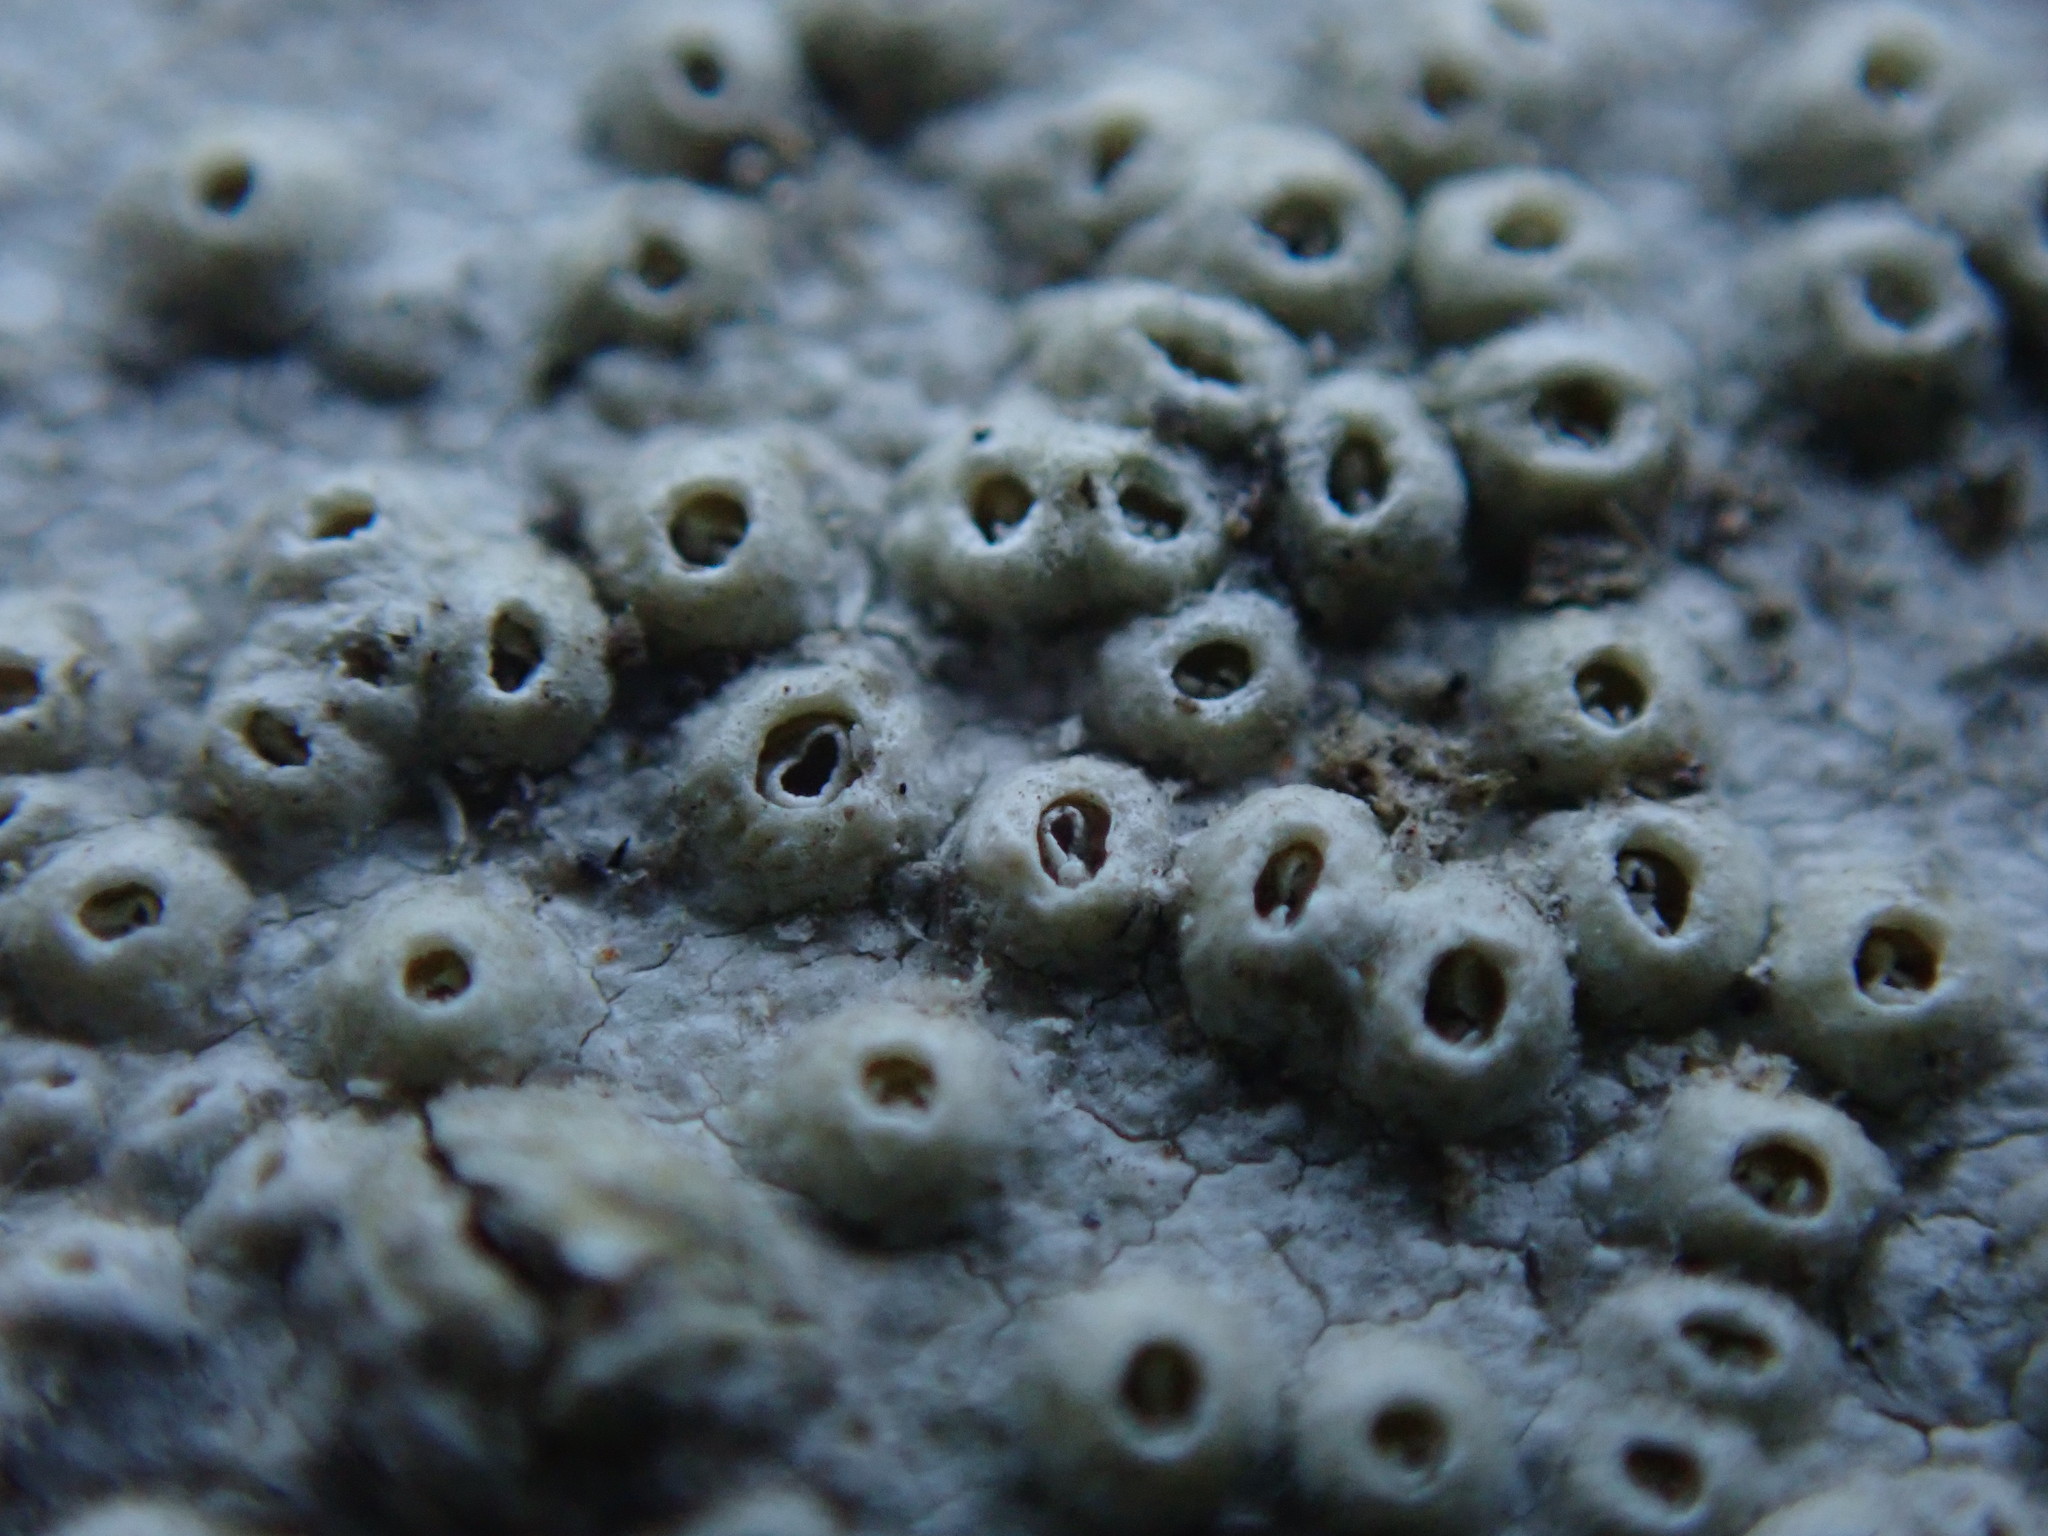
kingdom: Fungi
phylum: Ascomycota
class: Lecanoromycetes
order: Ostropales
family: Graphidaceae
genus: Thelotrema
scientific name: Thelotrema lepadinum
